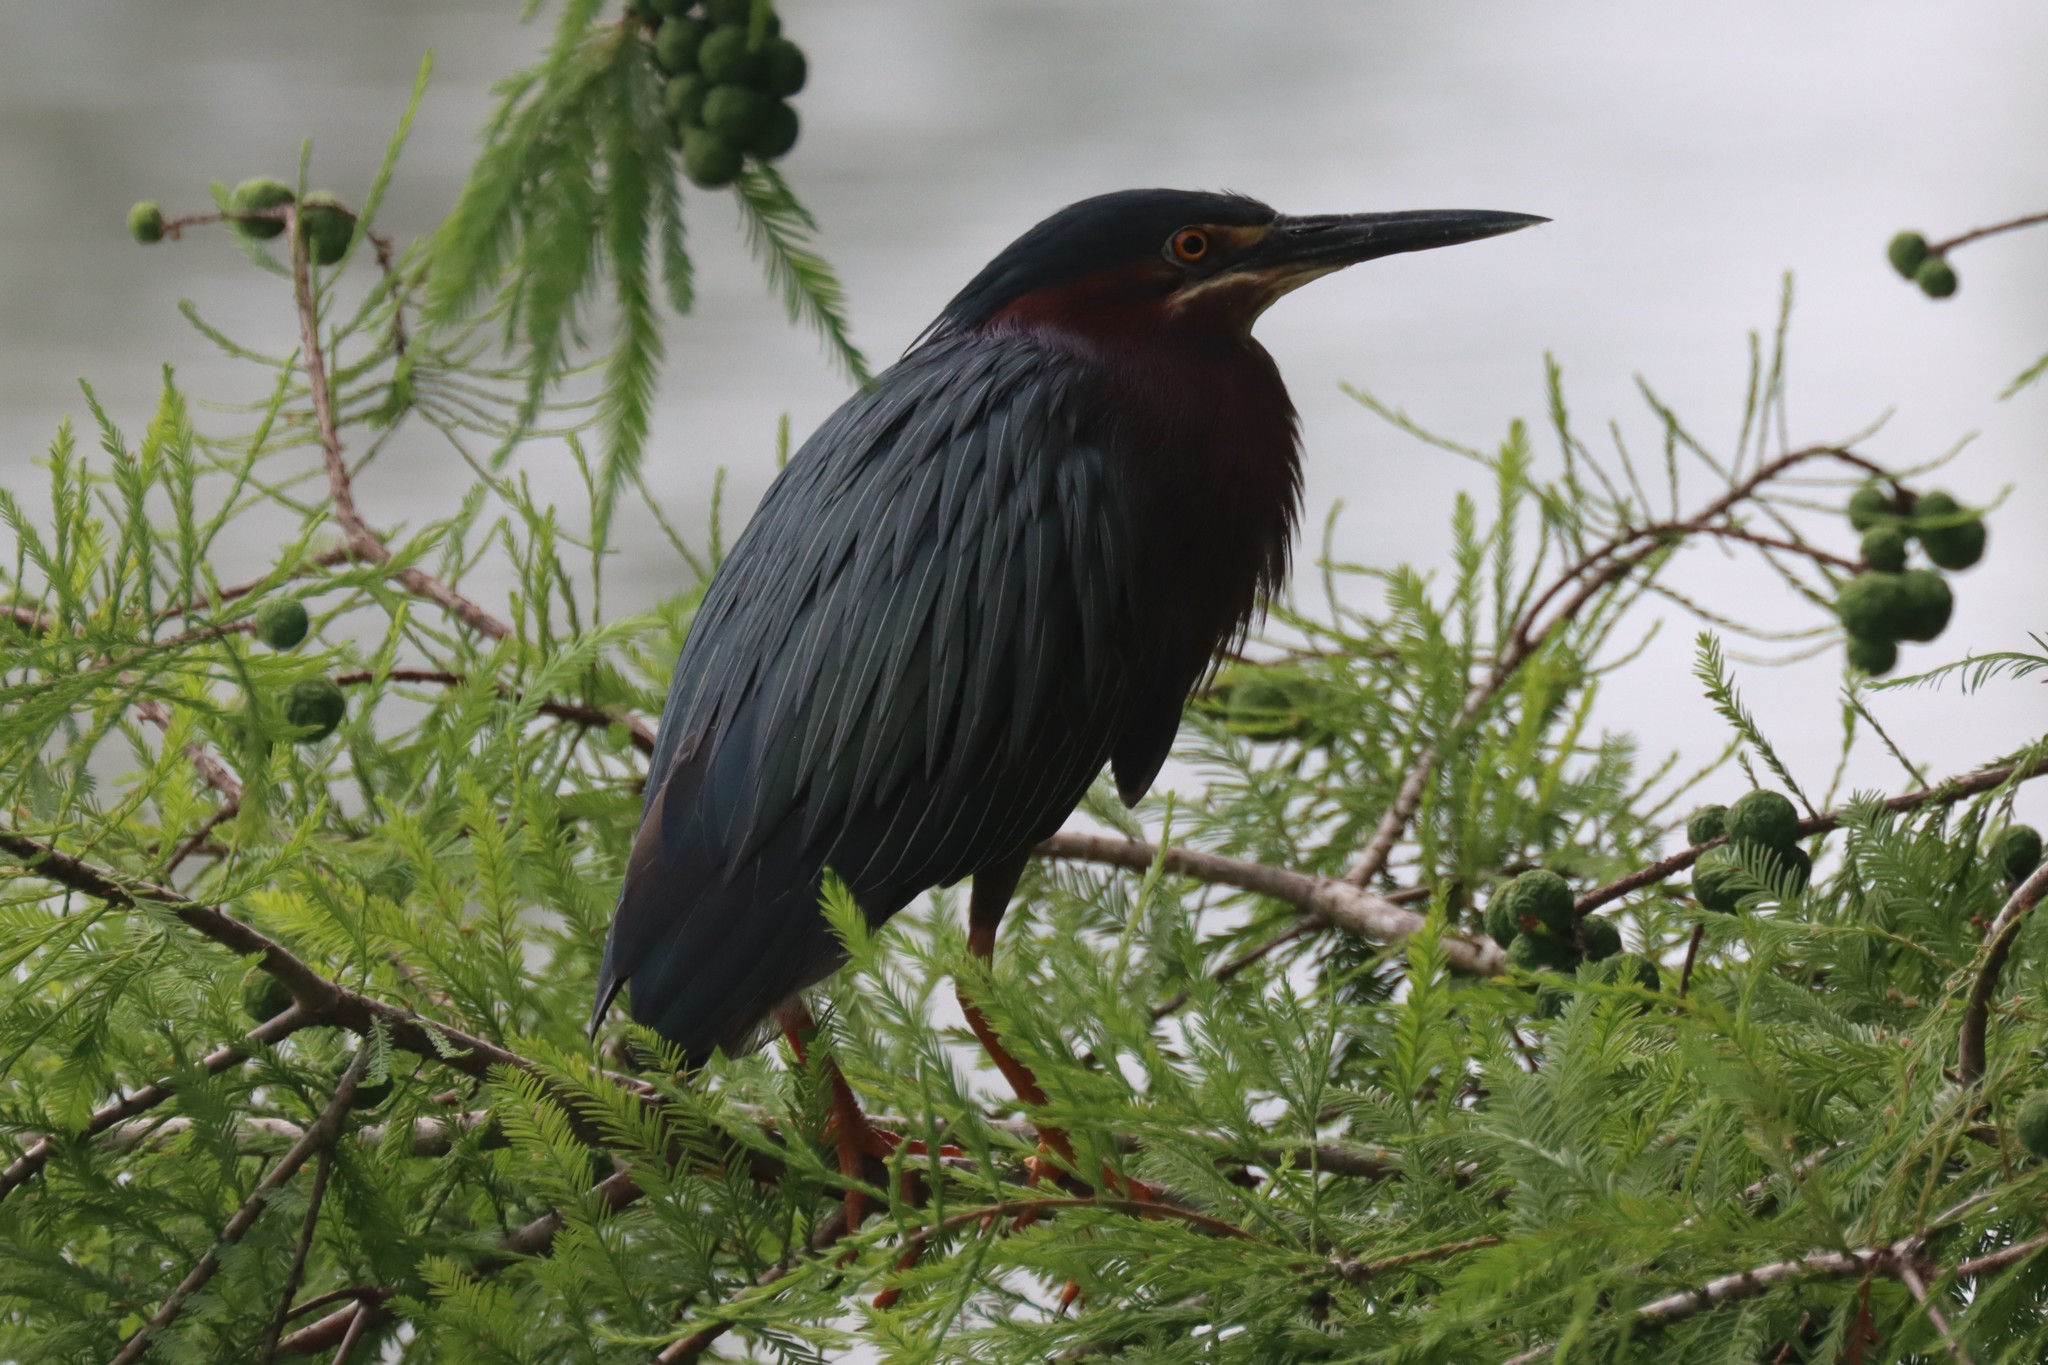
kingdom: Animalia
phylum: Chordata
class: Aves
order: Pelecaniformes
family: Ardeidae
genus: Butorides
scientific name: Butorides virescens
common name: Green heron
